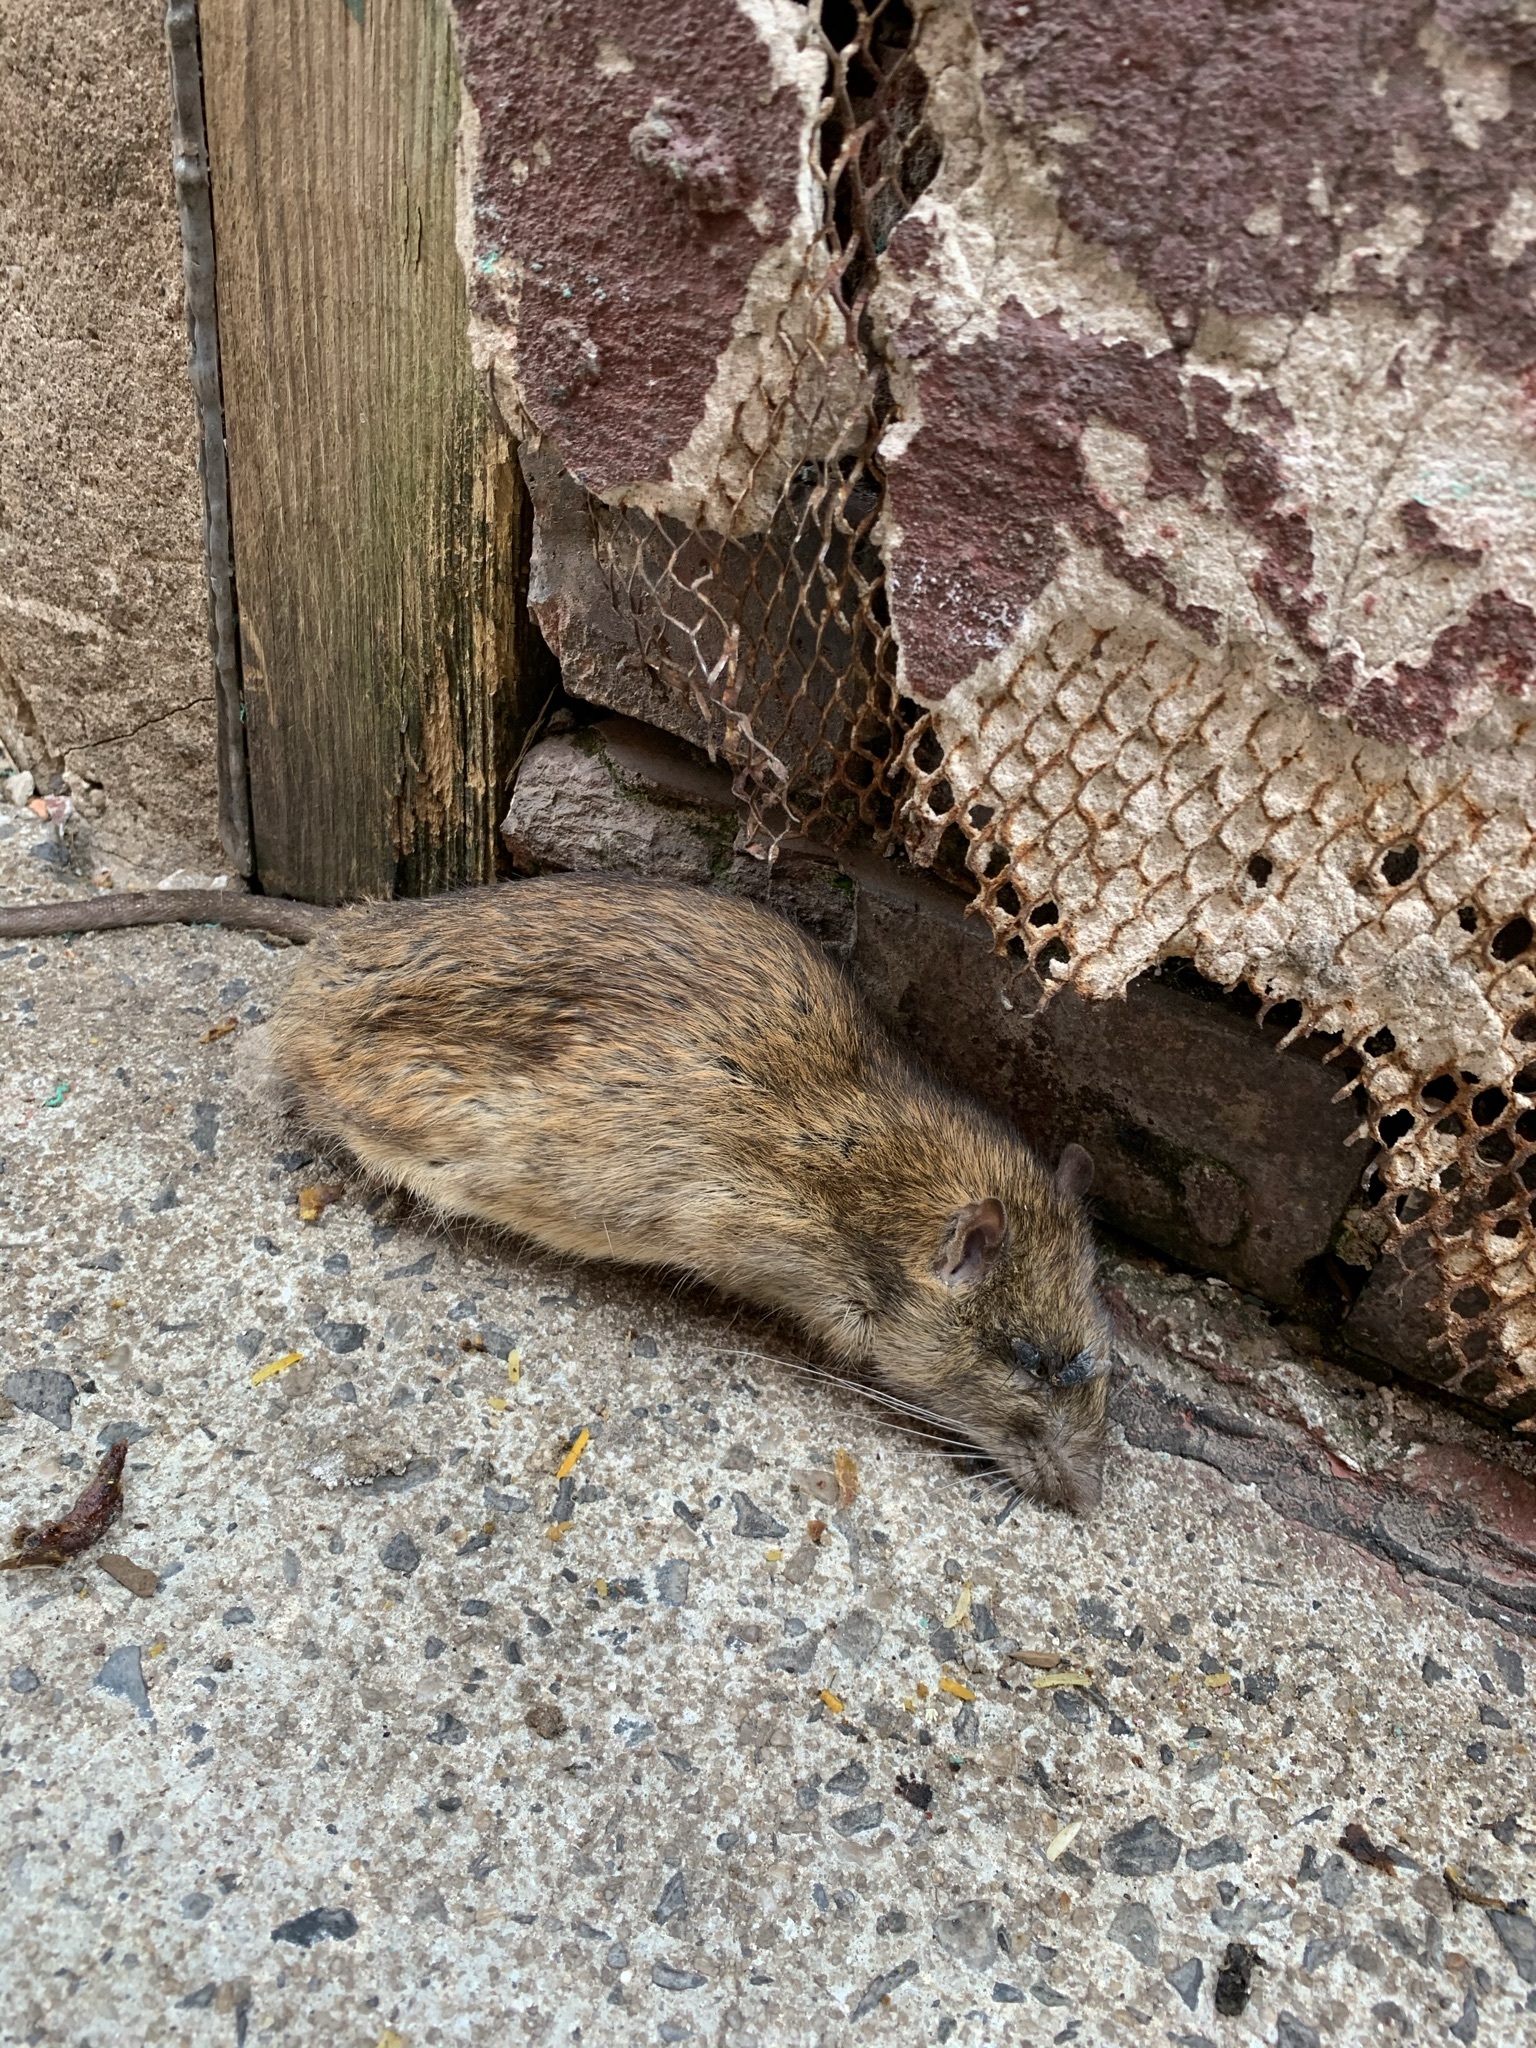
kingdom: Animalia
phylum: Chordata
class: Mammalia
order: Rodentia
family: Muridae
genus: Rattus
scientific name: Rattus norvegicus
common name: Brown rat
